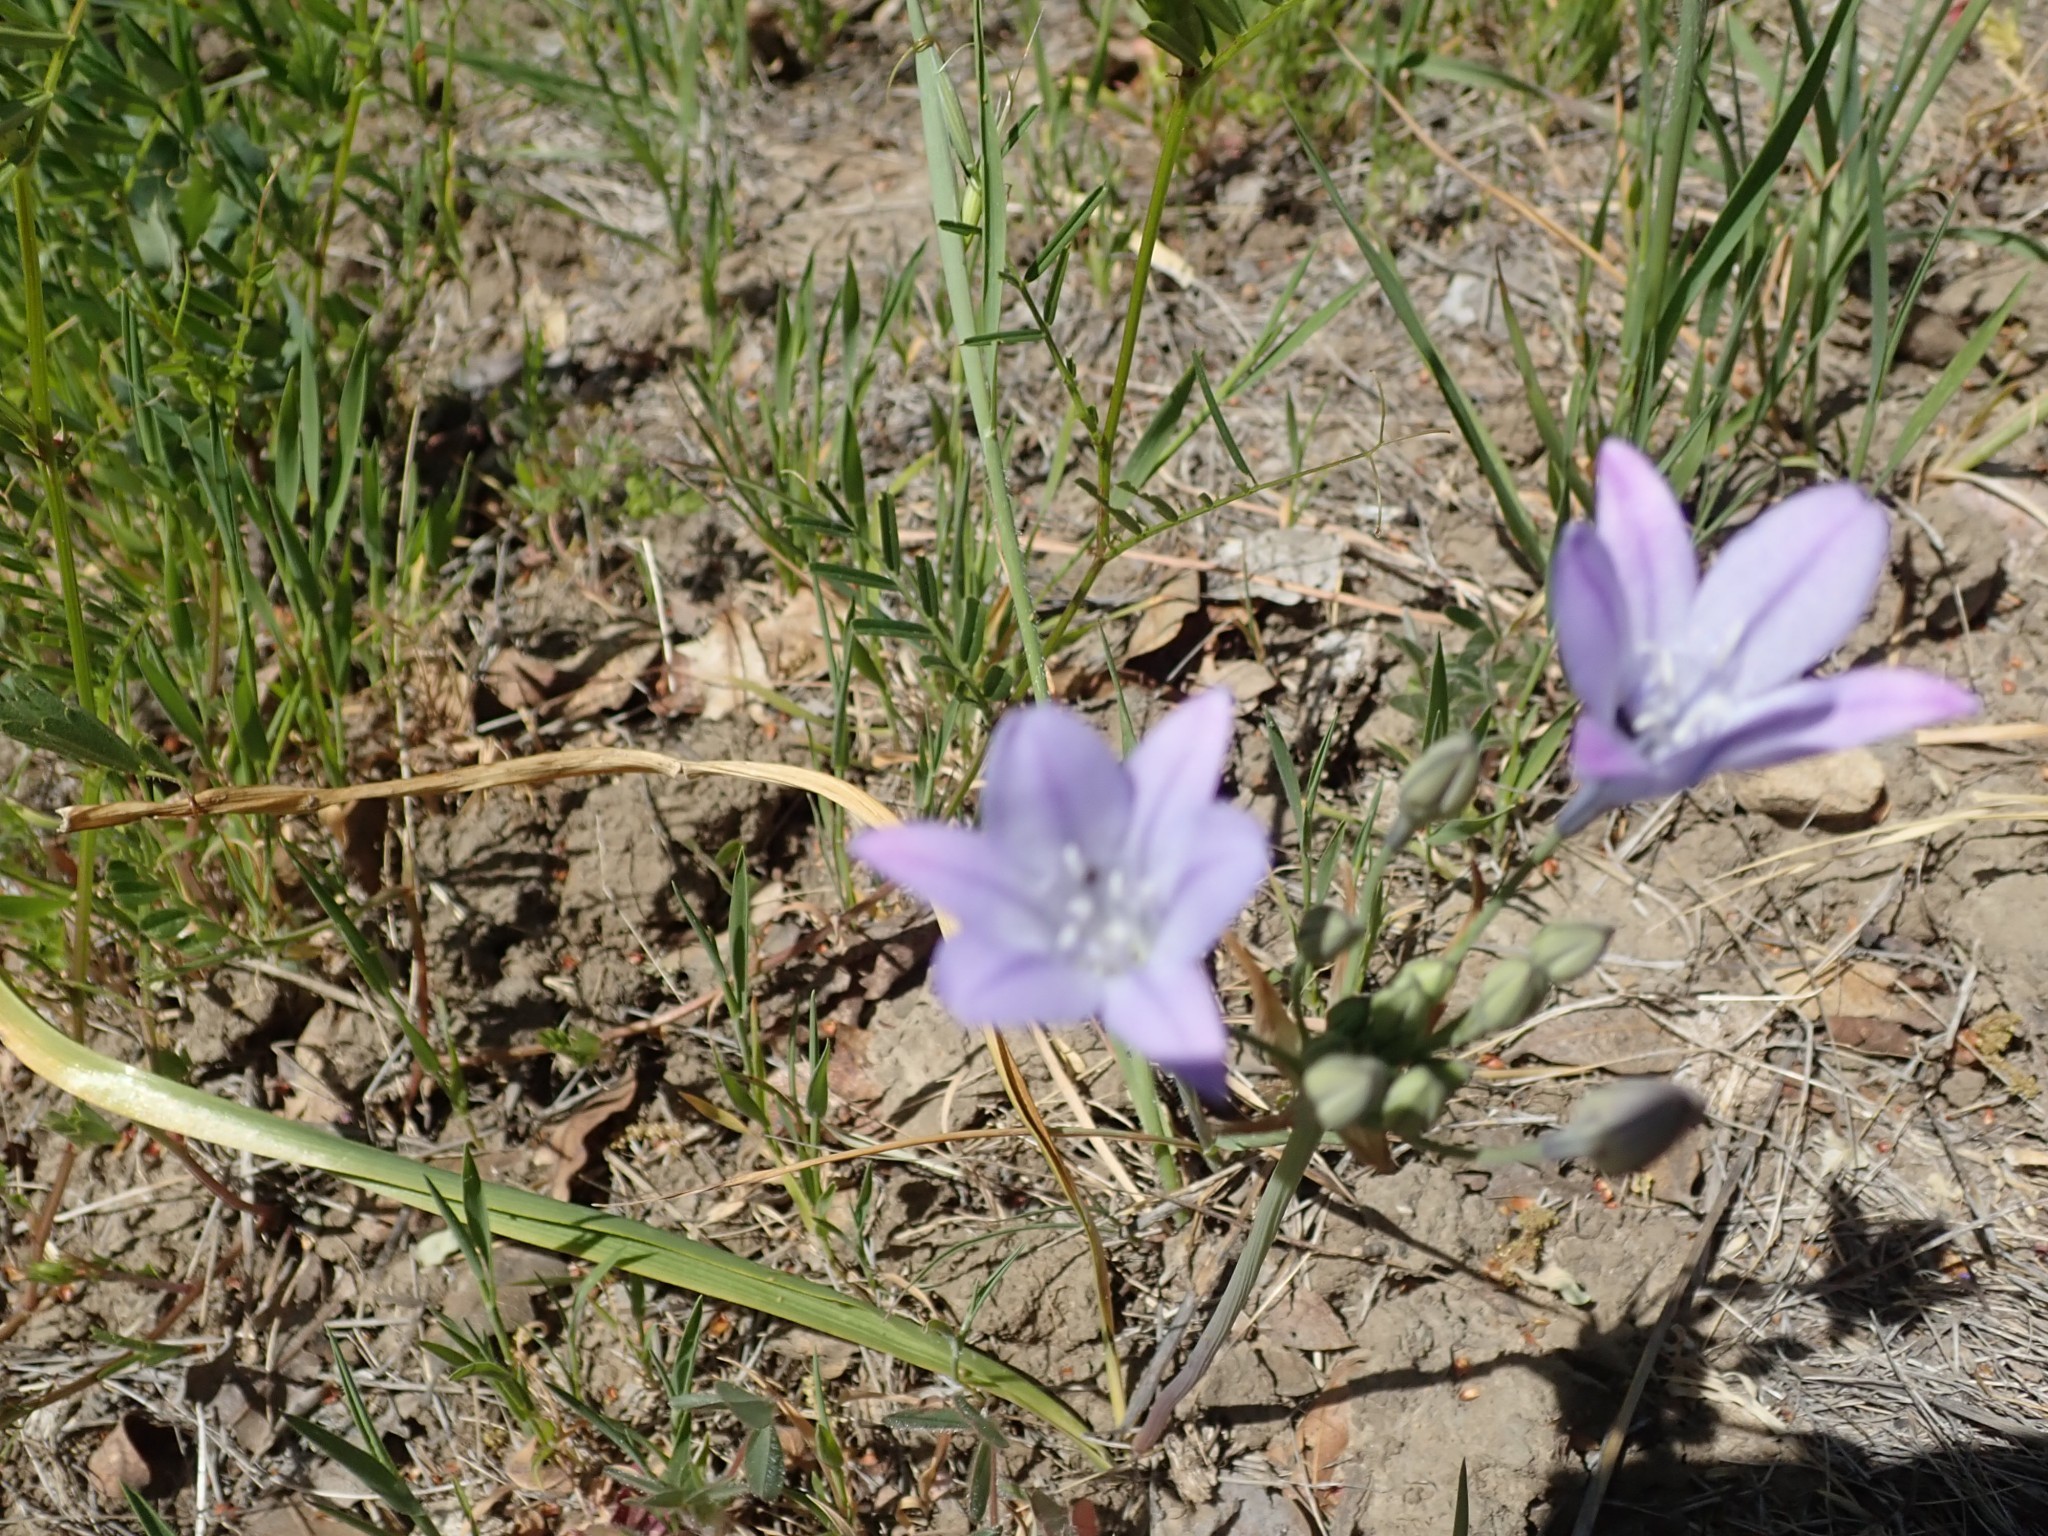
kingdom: Plantae
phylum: Tracheophyta
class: Liliopsida
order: Asparagales
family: Asparagaceae
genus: Triteleia
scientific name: Triteleia laxa
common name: Triplet-lily
